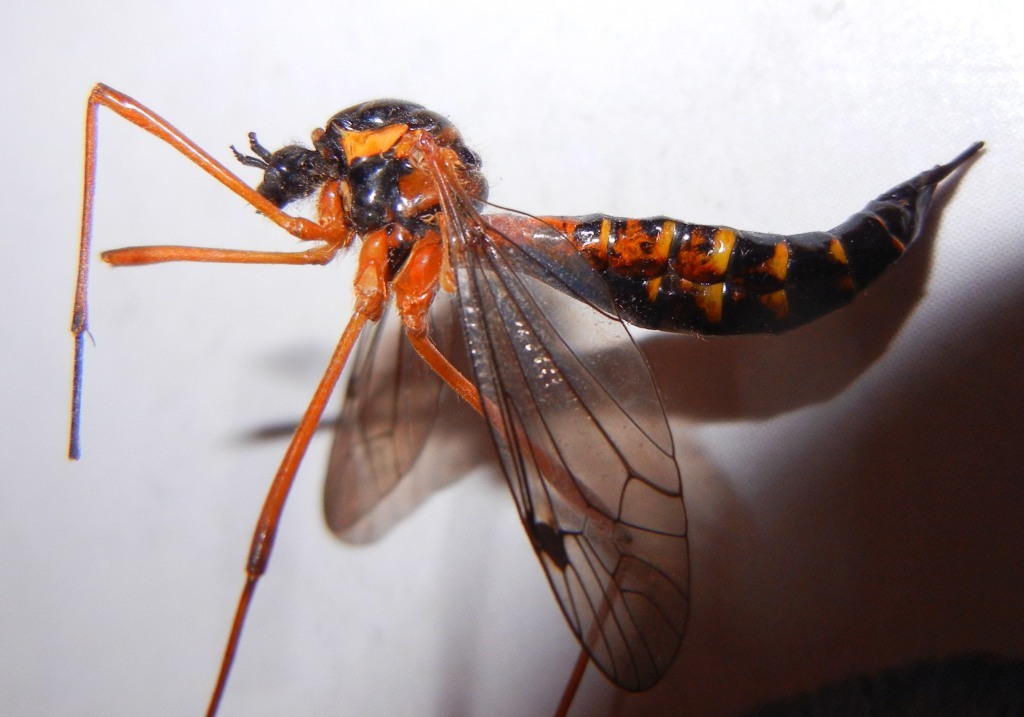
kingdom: Animalia
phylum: Arthropoda
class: Insecta
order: Diptera
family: Tipulidae
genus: Ctenophora
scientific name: Ctenophora pectinicornis
